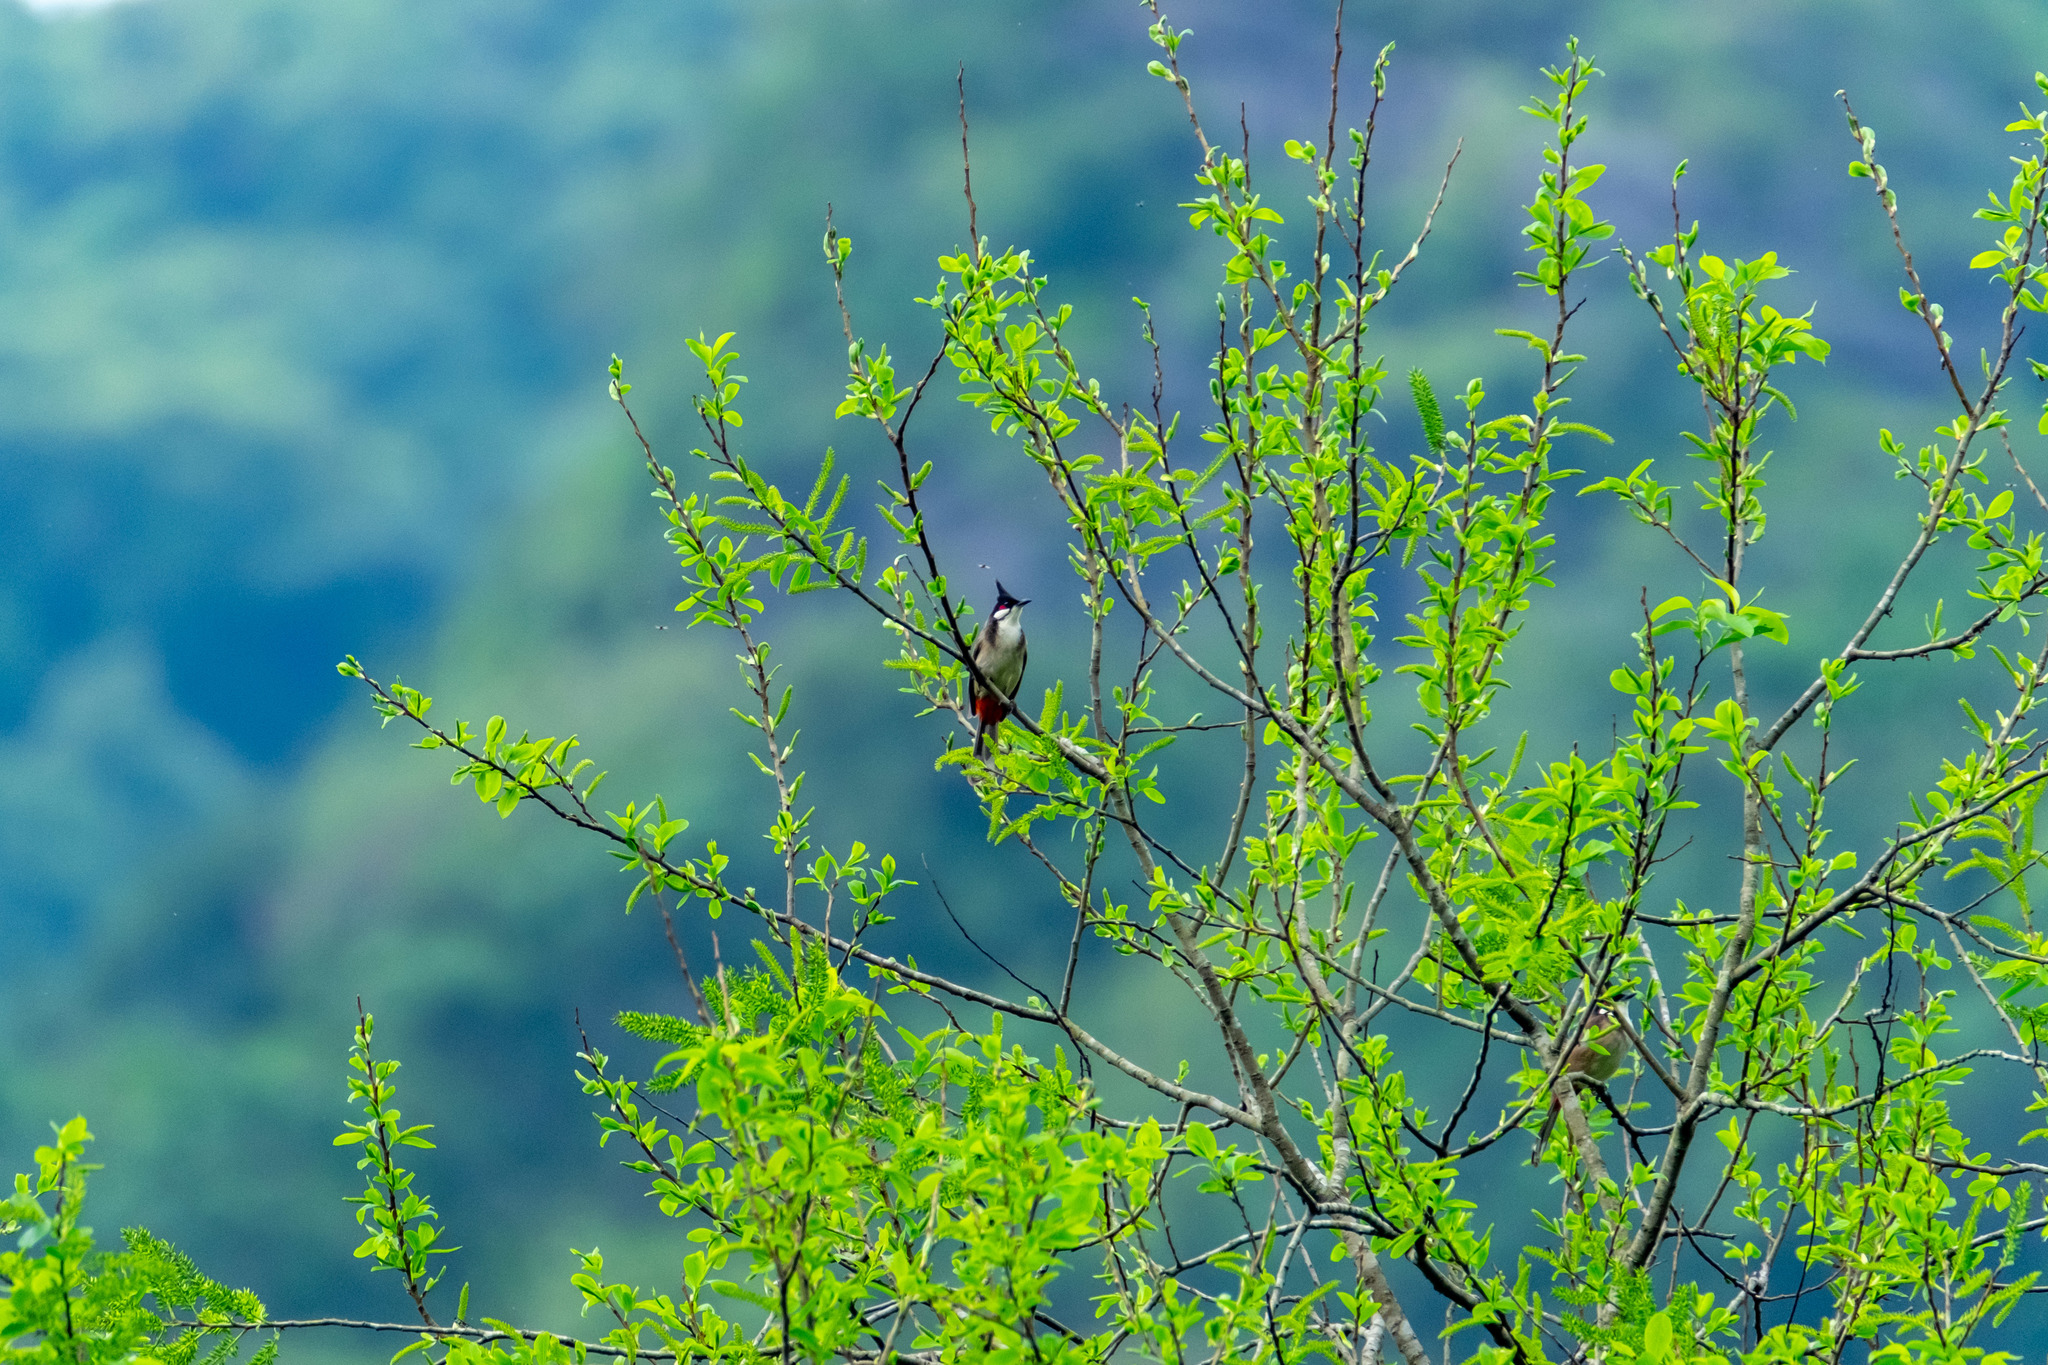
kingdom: Animalia
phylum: Chordata
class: Aves
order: Passeriformes
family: Pycnonotidae
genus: Pycnonotus
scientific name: Pycnonotus jocosus
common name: Red-whiskered bulbul
